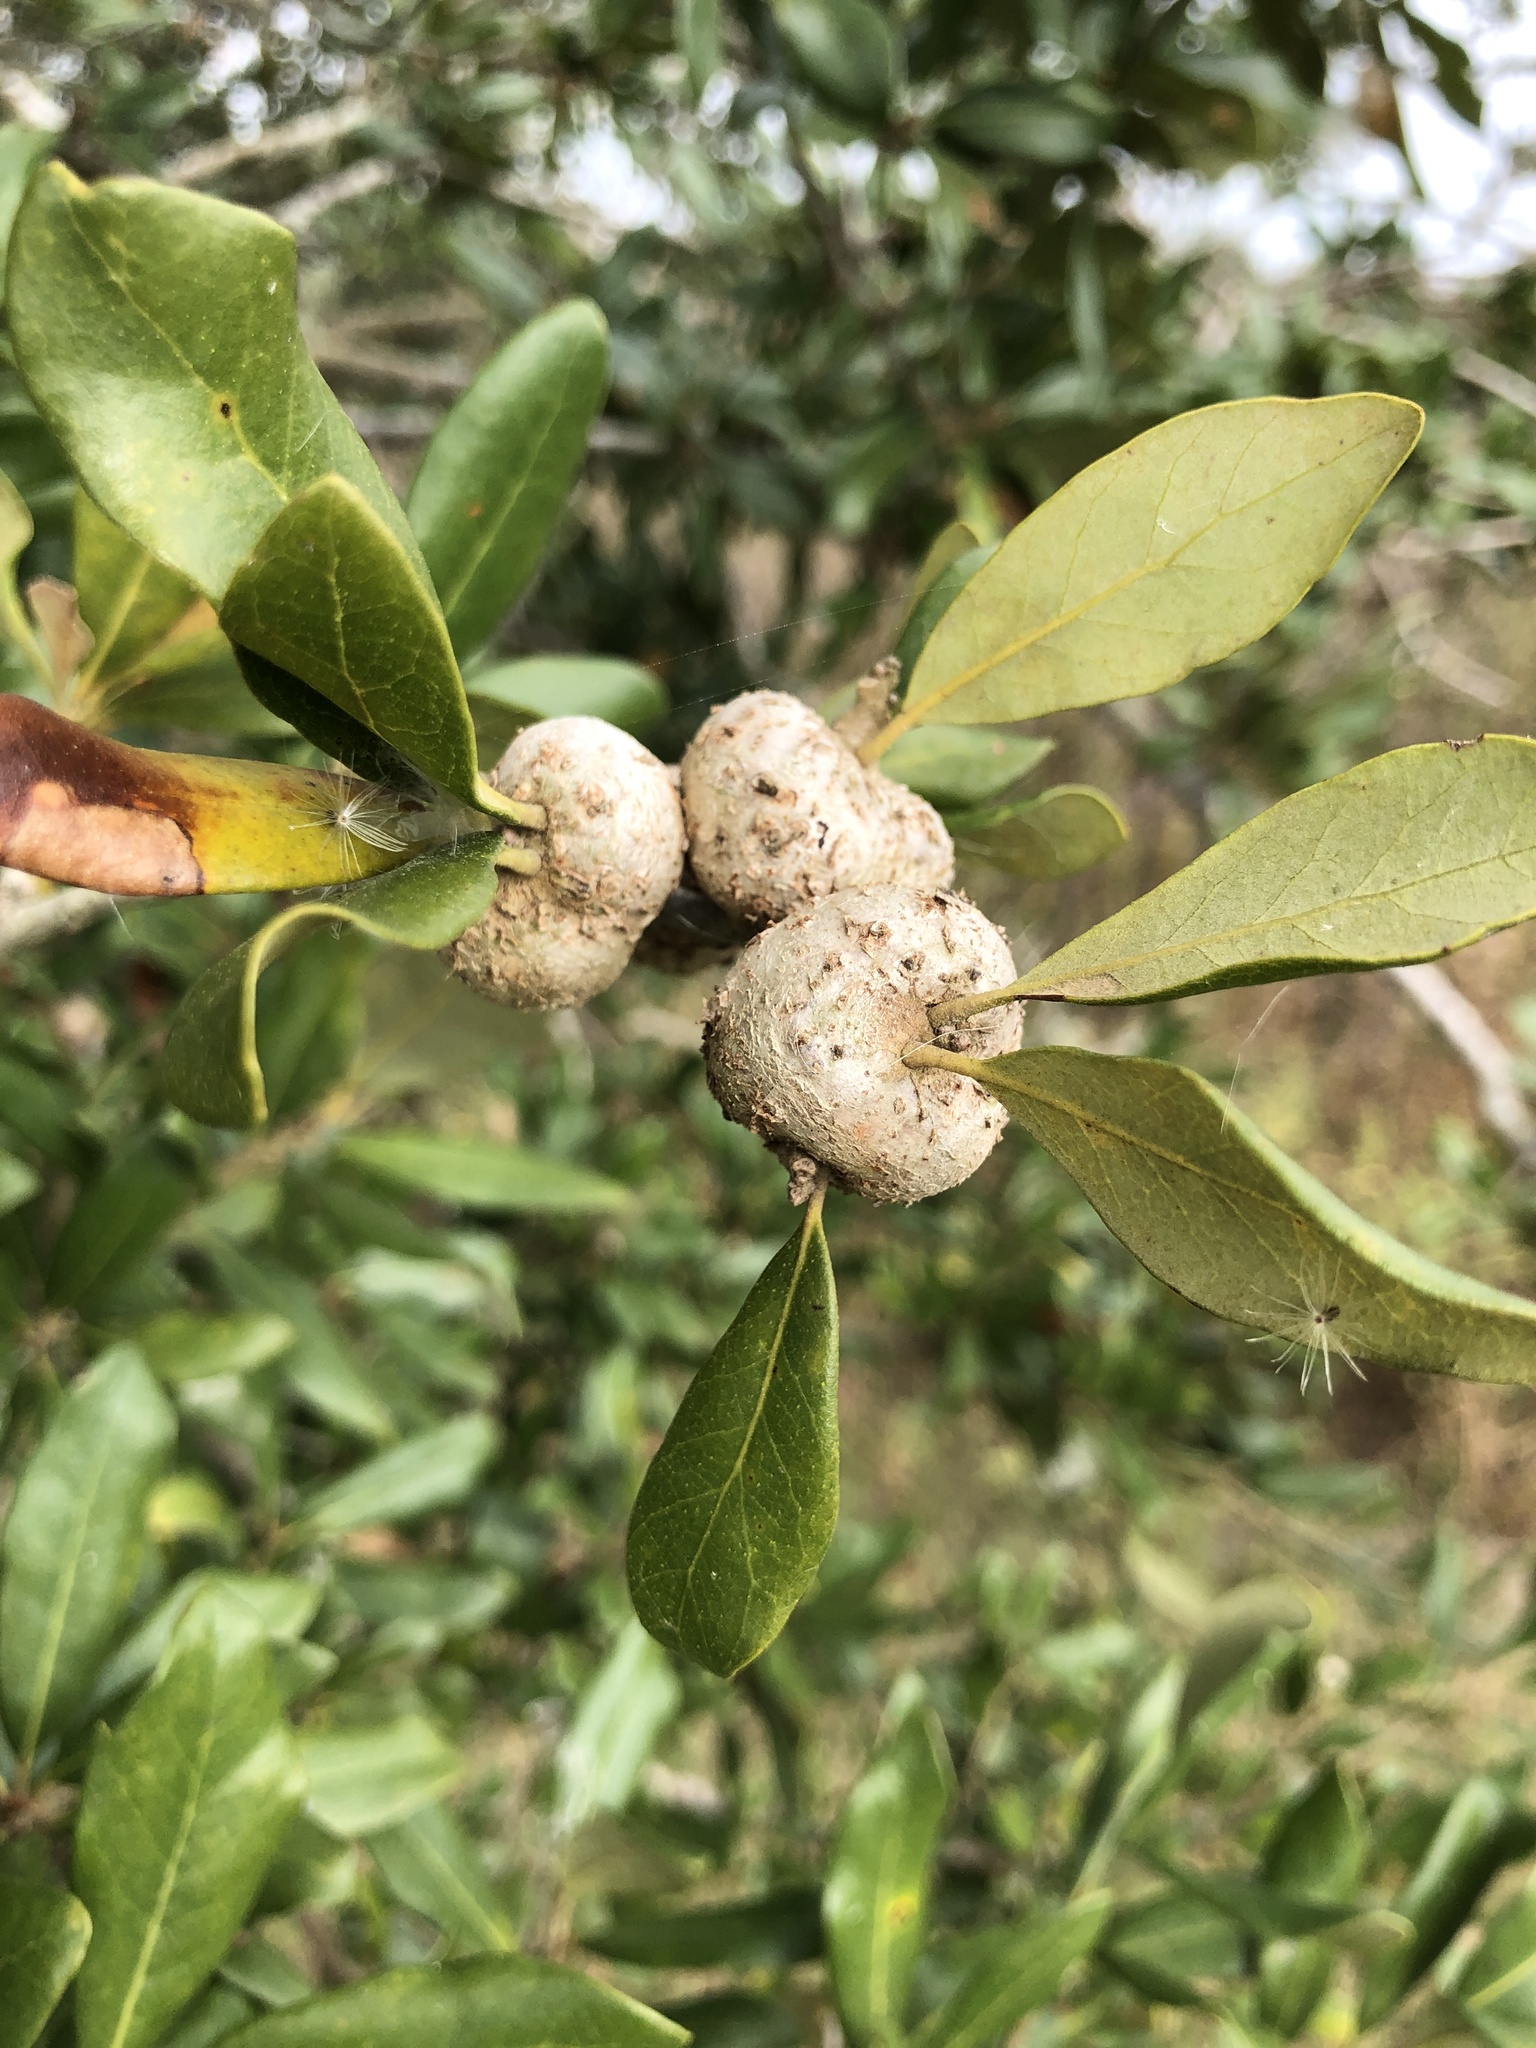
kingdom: Animalia
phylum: Arthropoda
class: Insecta
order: Hymenoptera
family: Cynipidae
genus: Callirhytis
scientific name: Callirhytis
